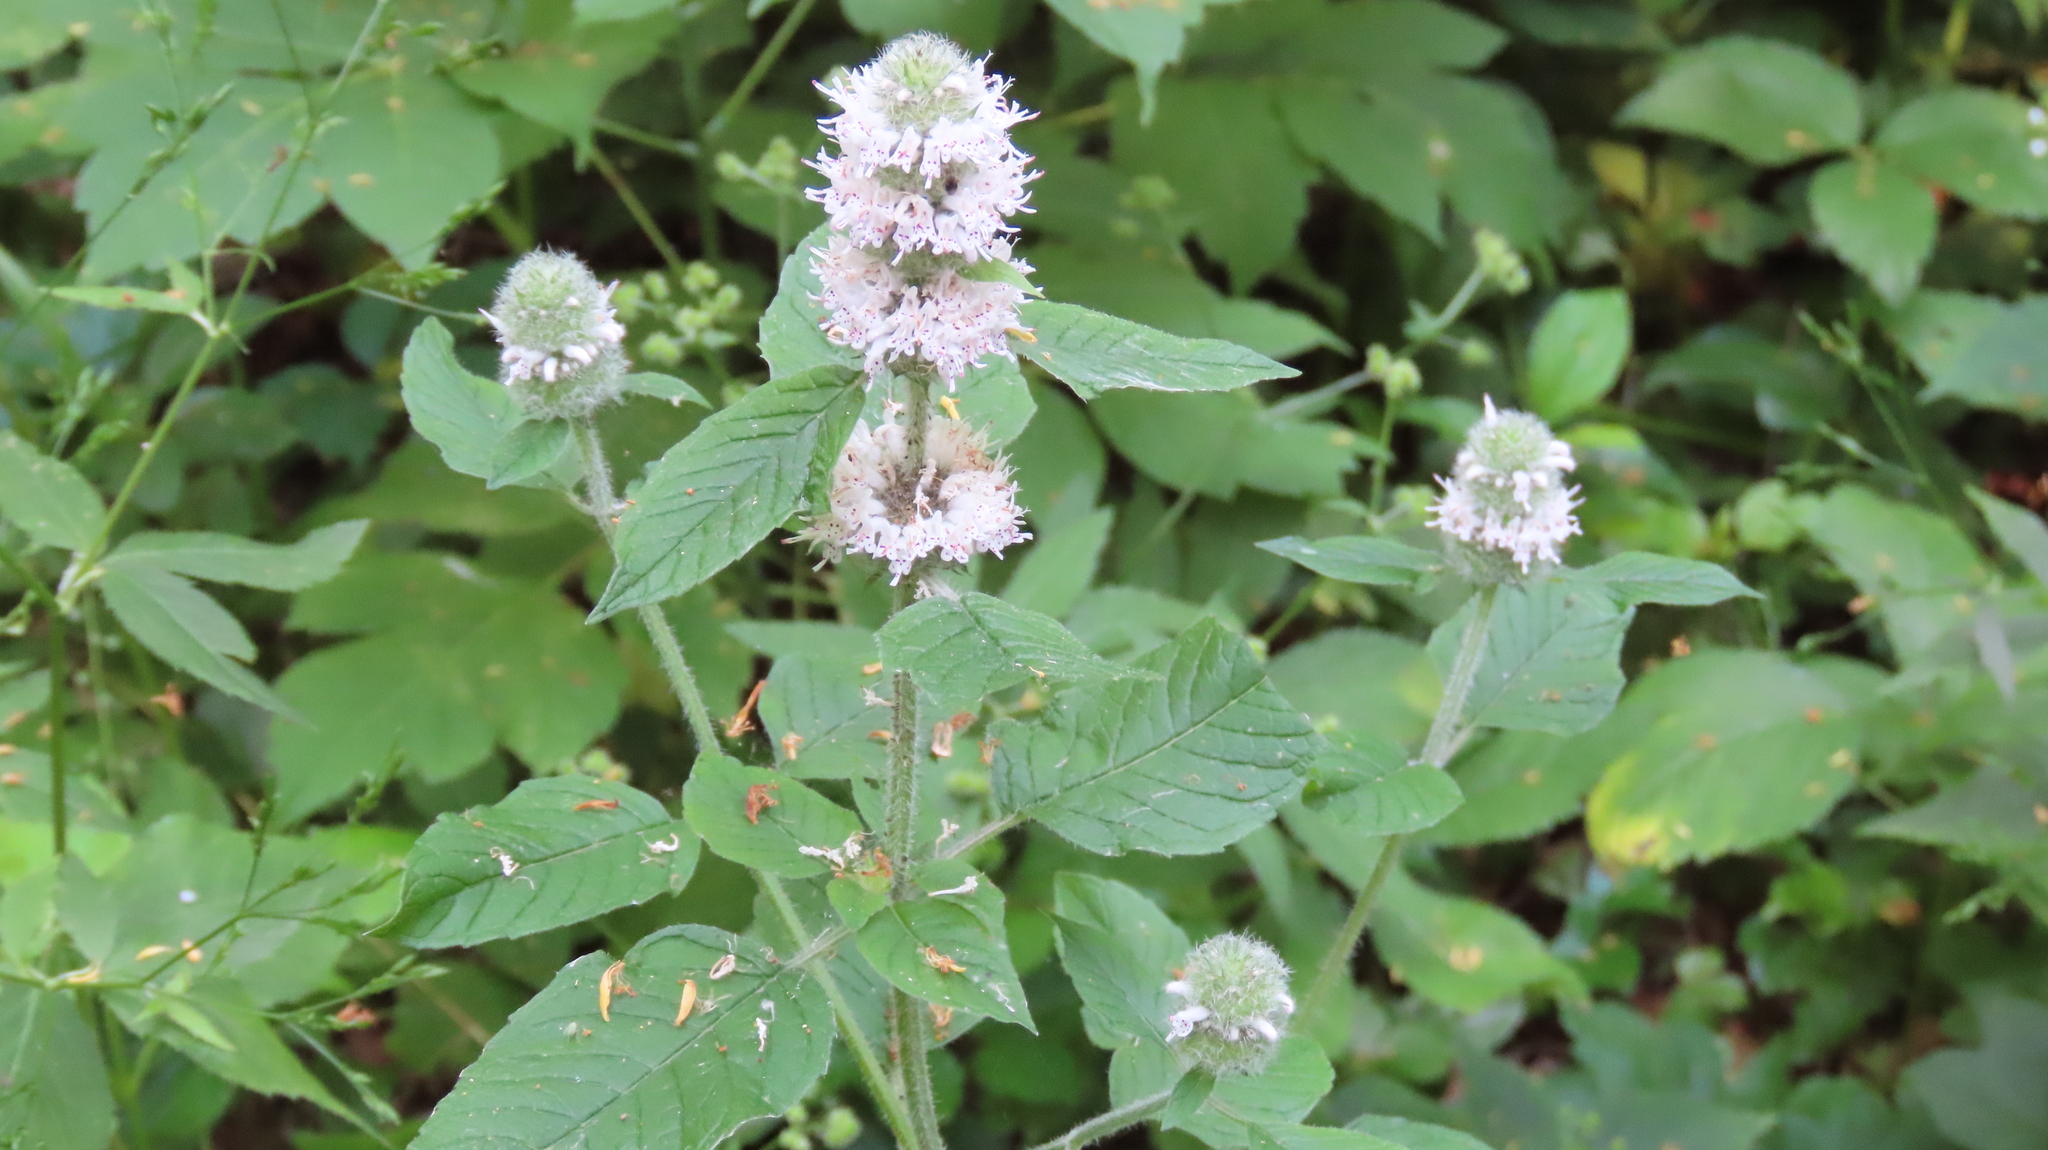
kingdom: Plantae
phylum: Tracheophyta
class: Magnoliopsida
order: Lamiales
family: Lamiaceae
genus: Blephilia
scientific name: Blephilia hirsuta
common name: Hairy blephilia
